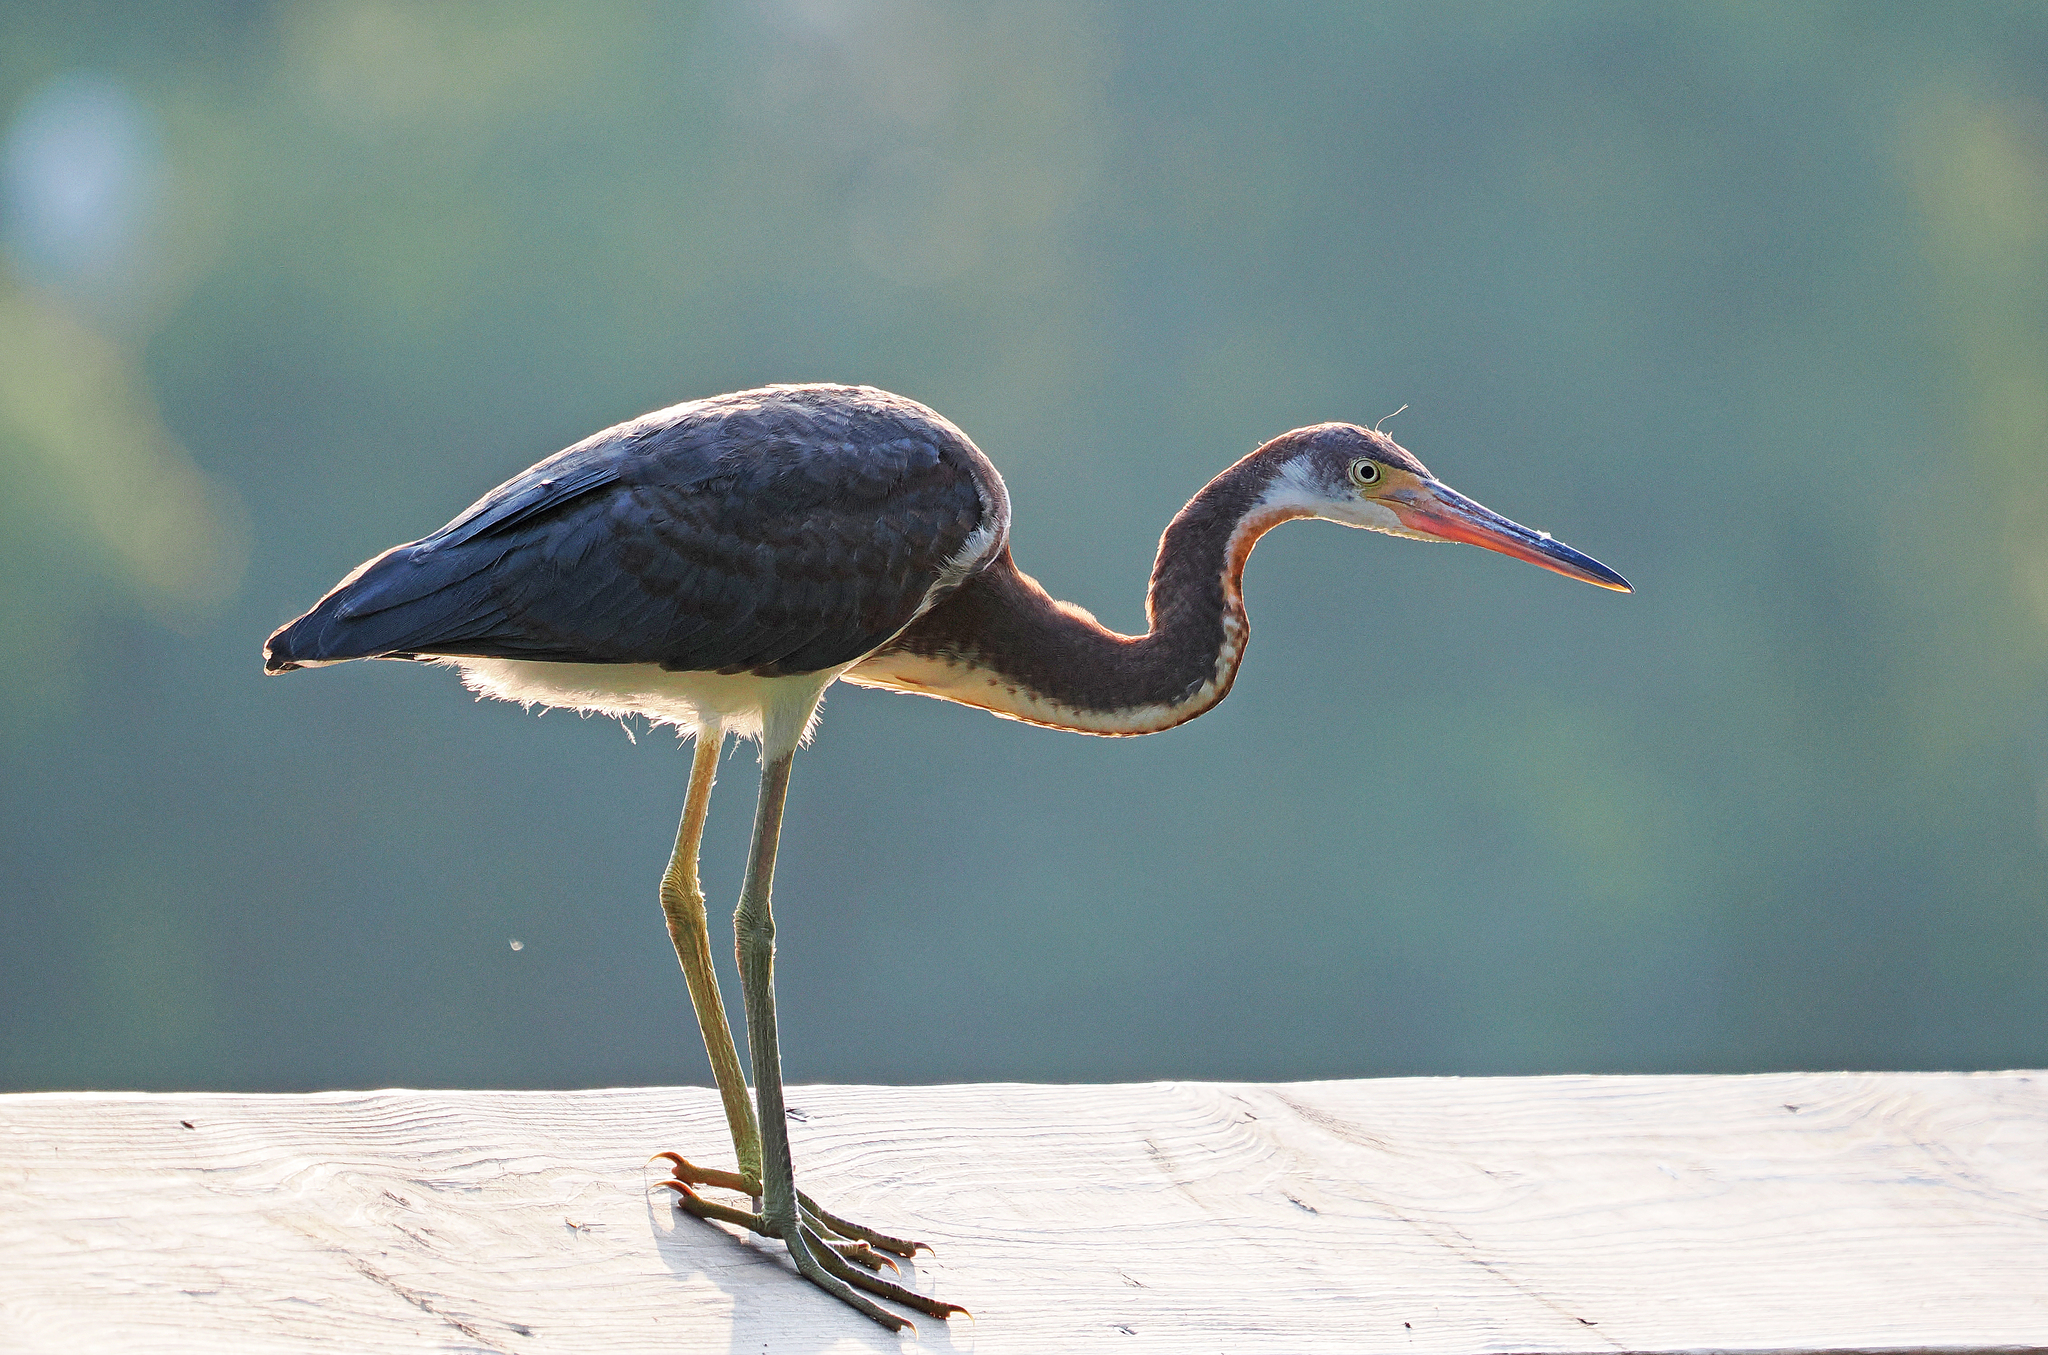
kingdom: Animalia
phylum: Chordata
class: Aves
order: Pelecaniformes
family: Ardeidae
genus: Egretta
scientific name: Egretta tricolor
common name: Tricolored heron
